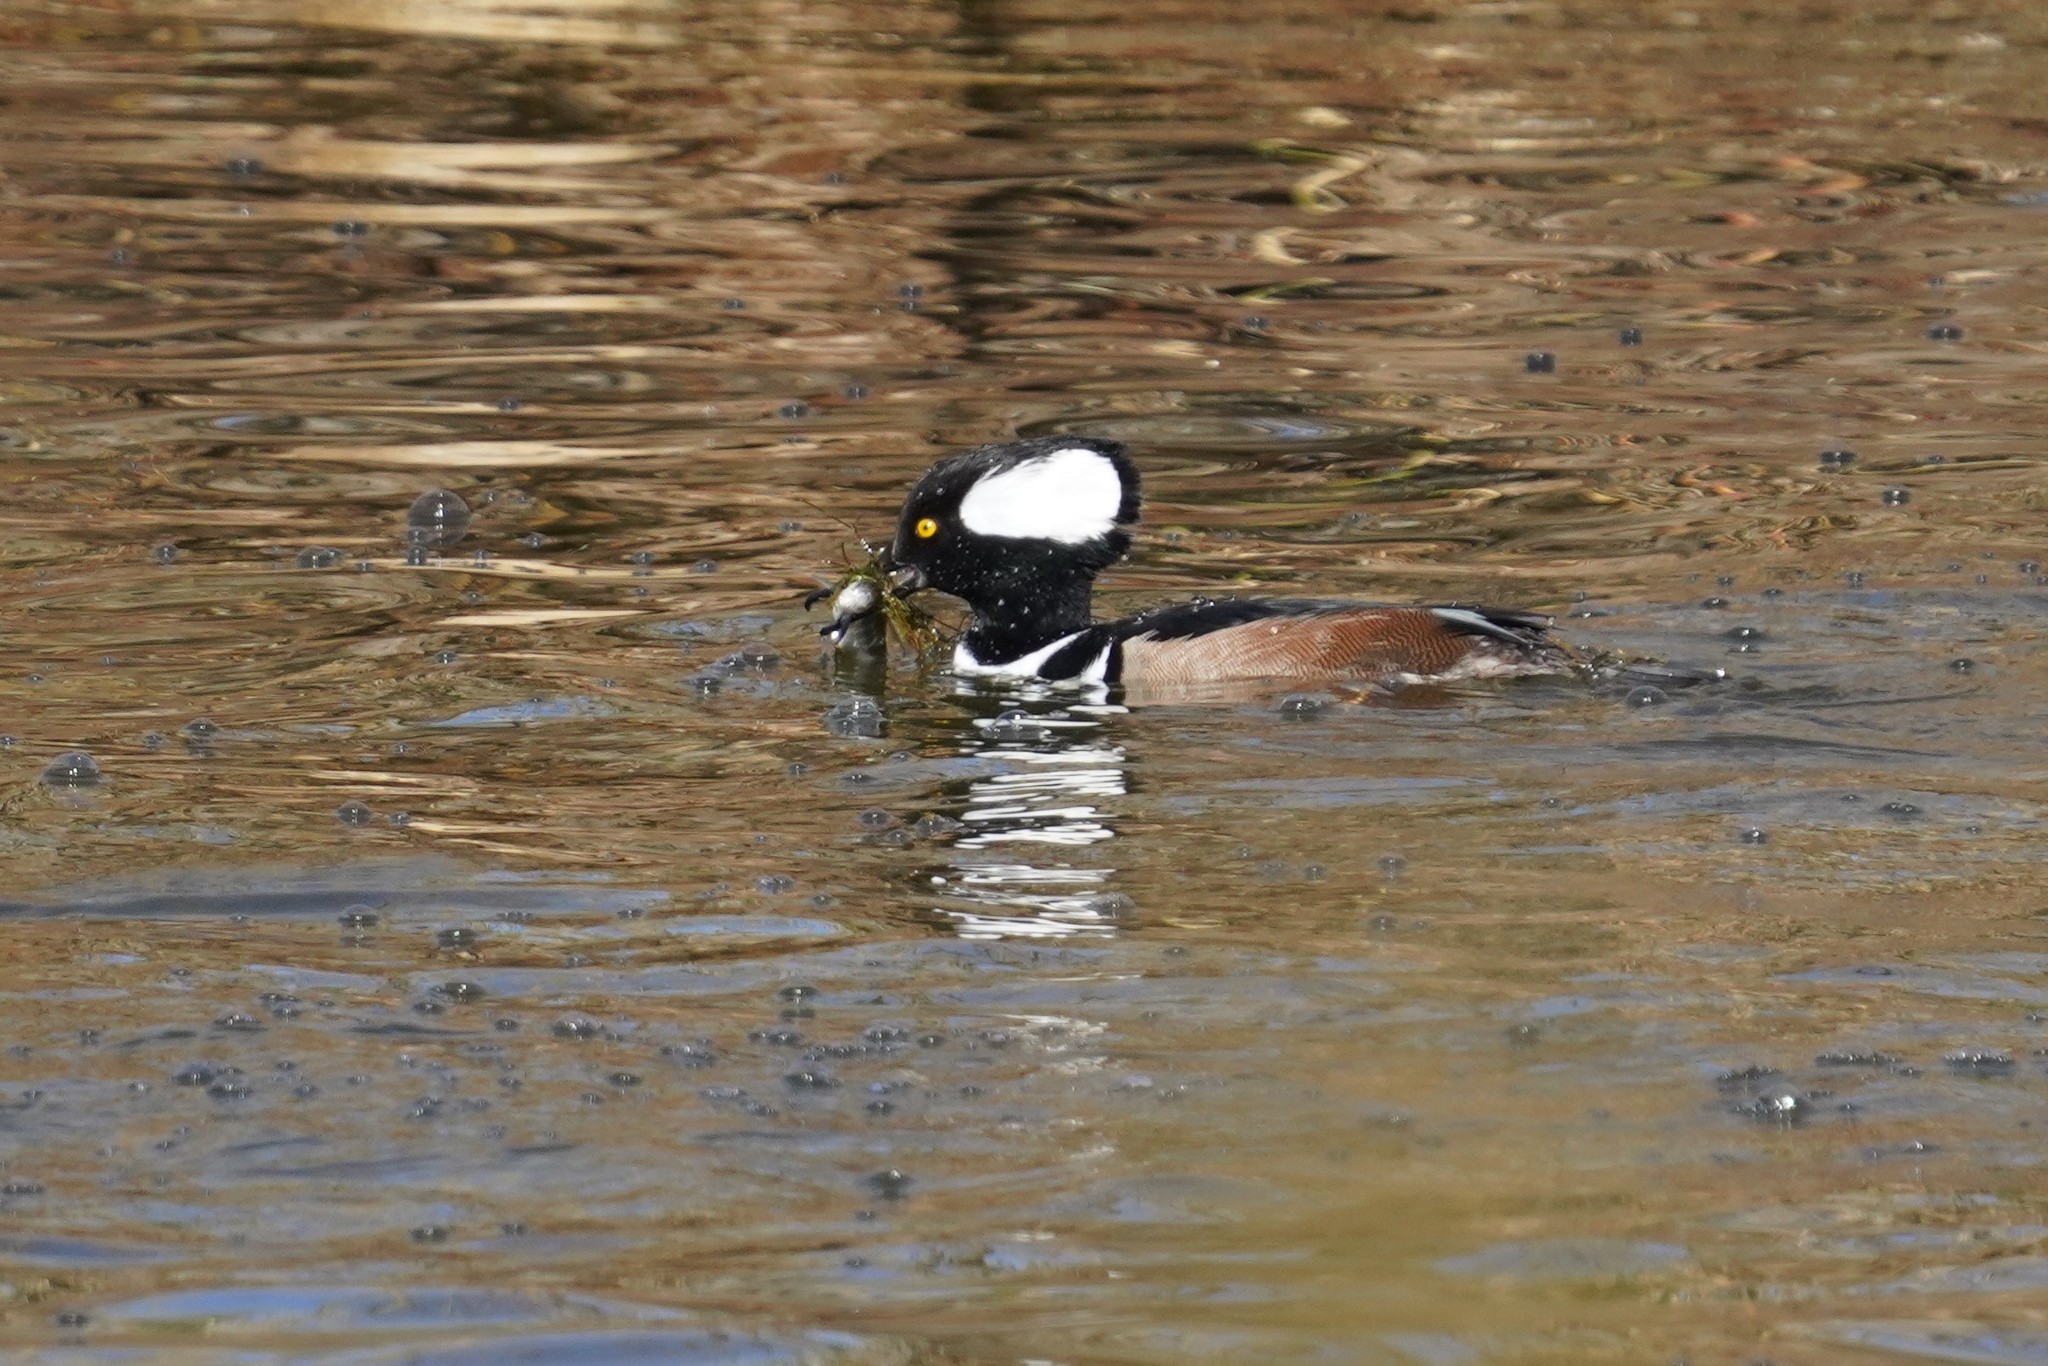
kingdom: Animalia
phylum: Chordata
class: Aves
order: Anseriformes
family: Anatidae
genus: Lophodytes
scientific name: Lophodytes cucullatus
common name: Hooded merganser
